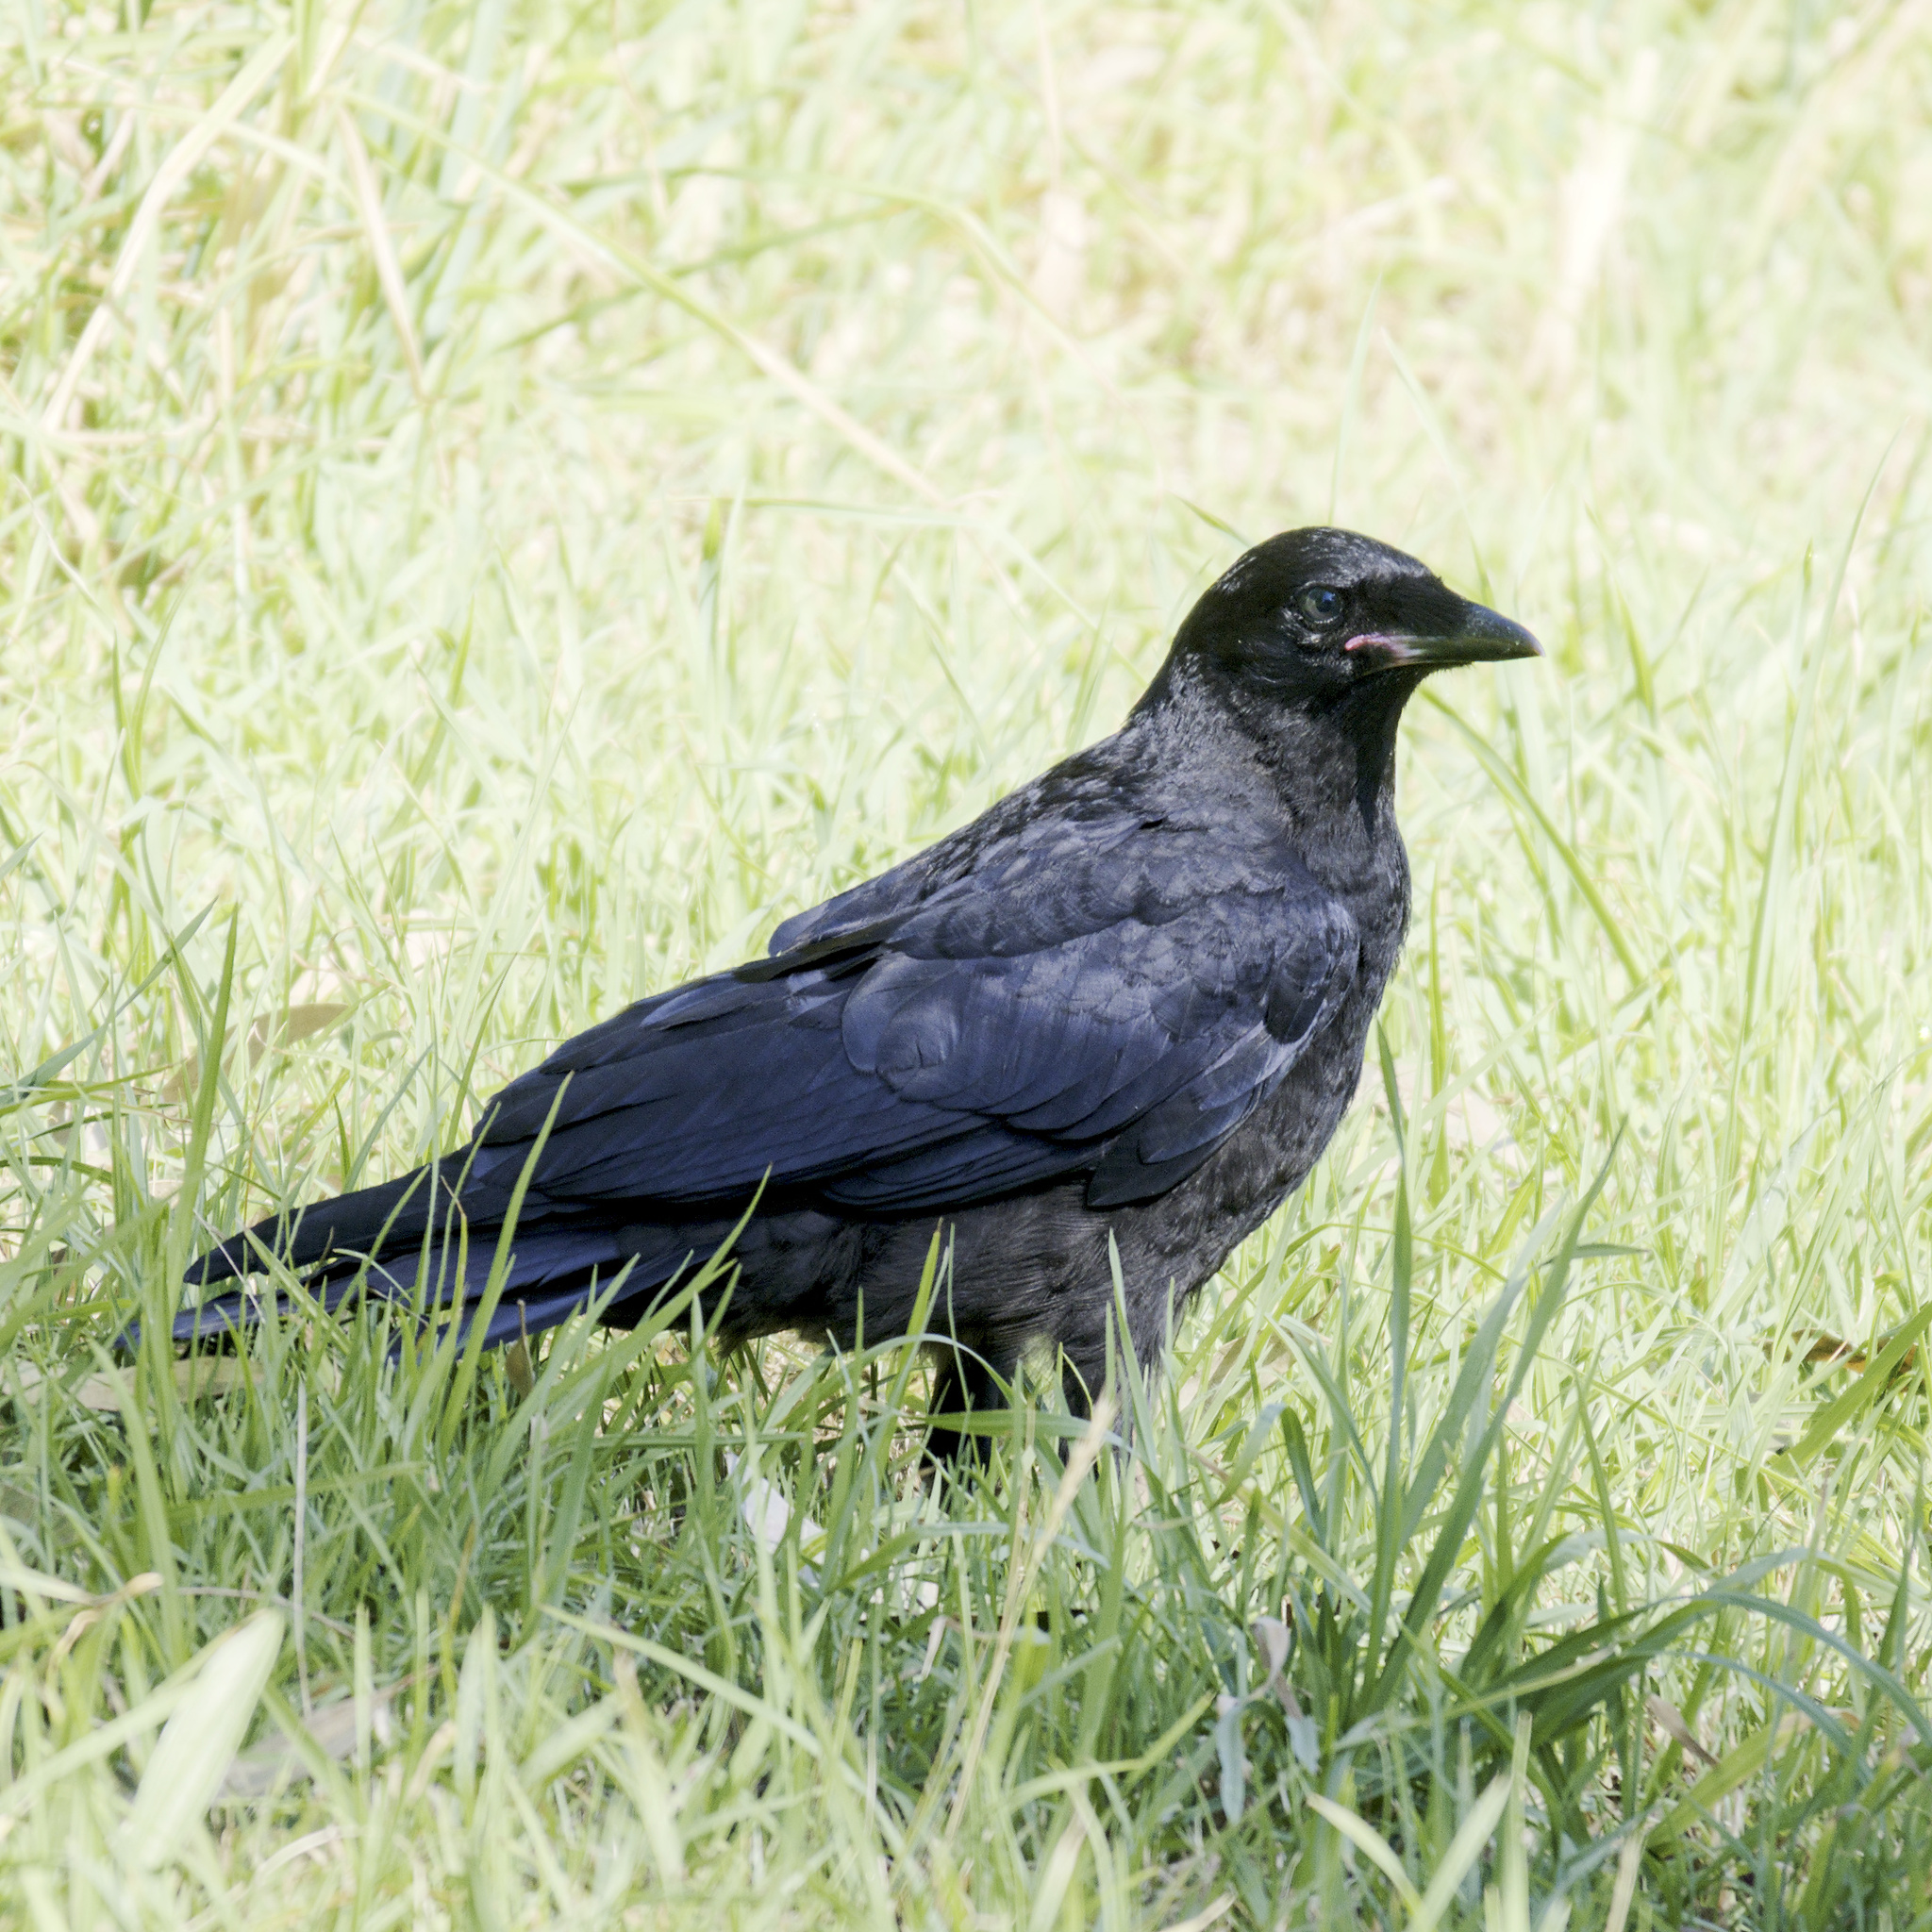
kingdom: Animalia
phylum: Chordata
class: Aves
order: Passeriformes
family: Corvidae
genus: Corvus
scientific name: Corvus mellori
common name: Little raven
